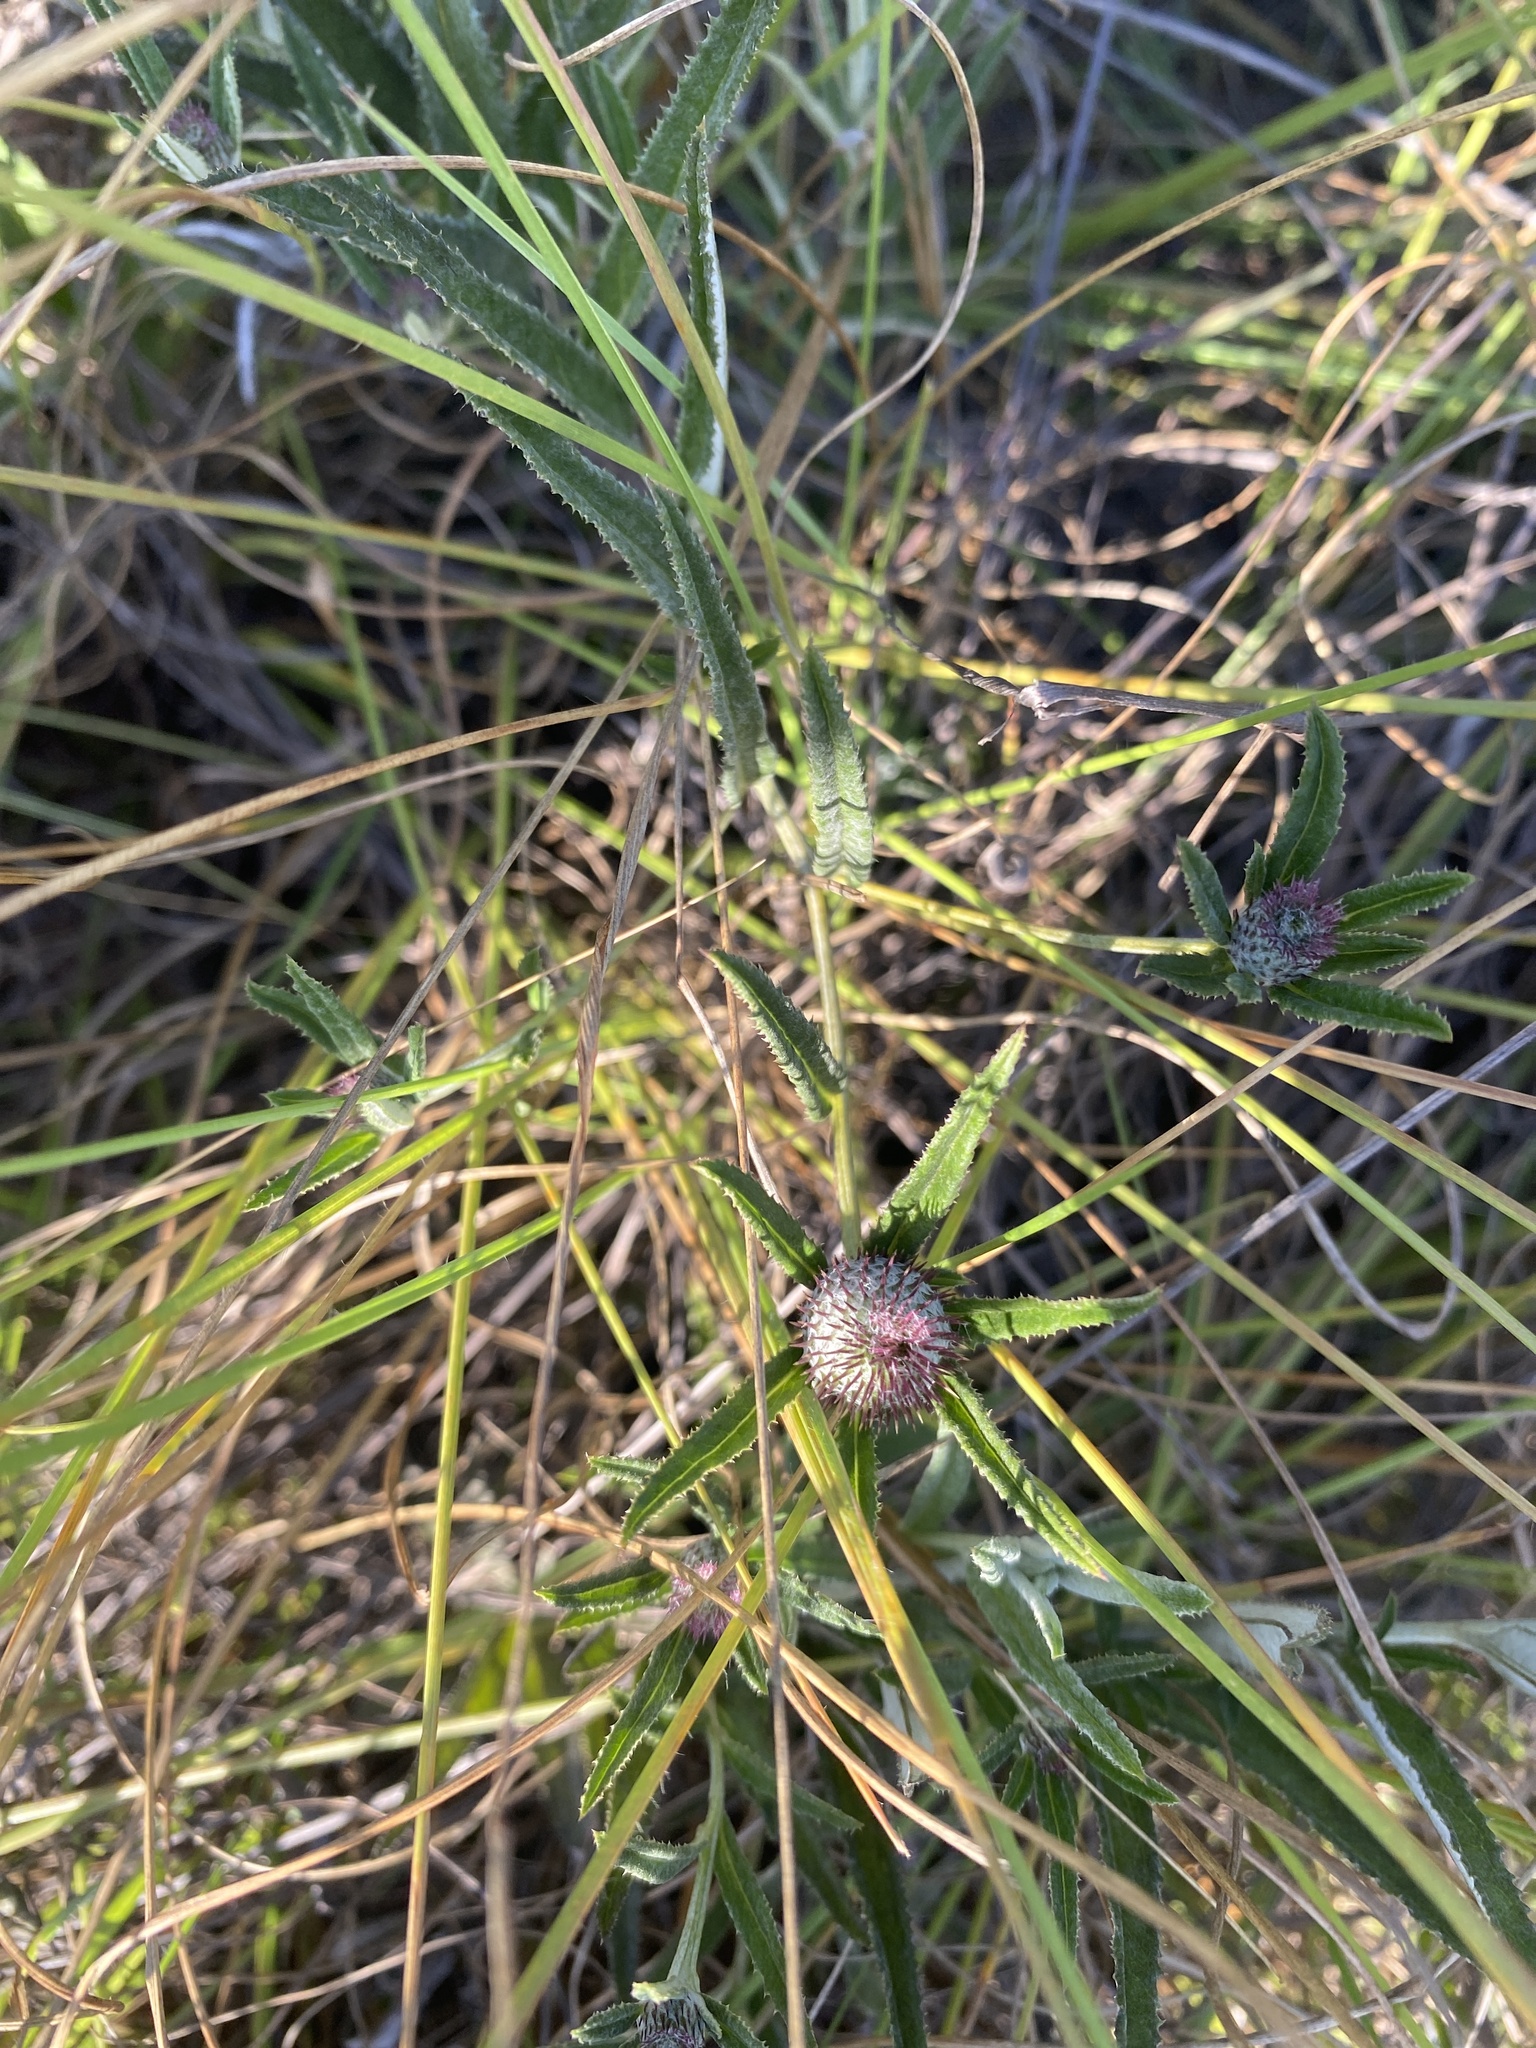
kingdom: Plantae
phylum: Tracheophyta
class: Magnoliopsida
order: Asterales
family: Asteraceae
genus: Dicoma
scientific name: Dicoma anomala
